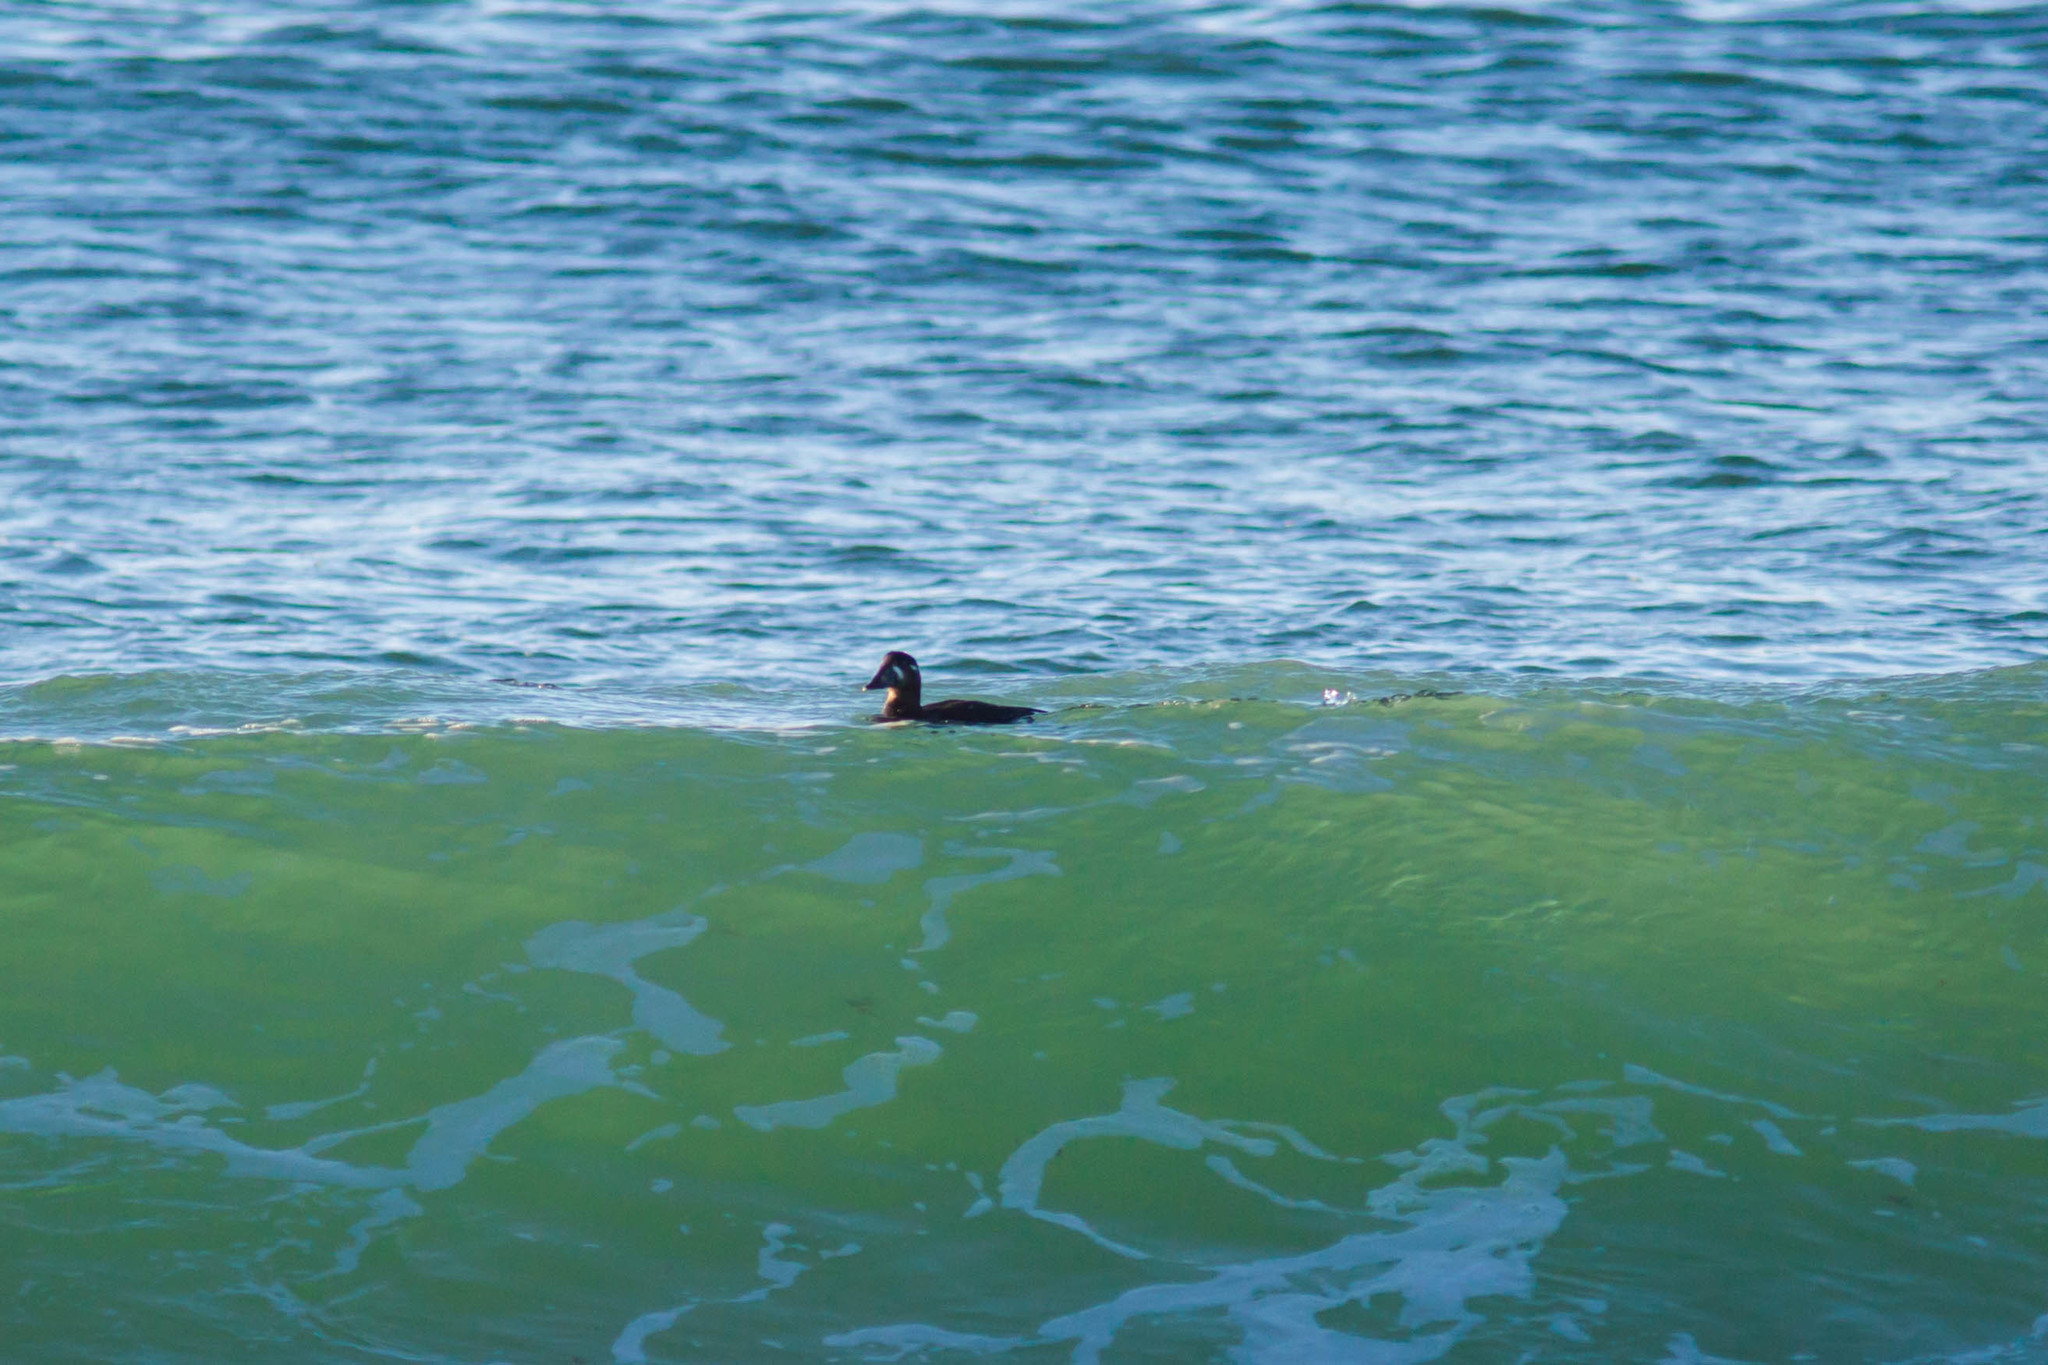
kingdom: Animalia
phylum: Chordata
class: Aves
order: Anseriformes
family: Anatidae
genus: Melanitta
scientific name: Melanitta perspicillata
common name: Surf scoter
